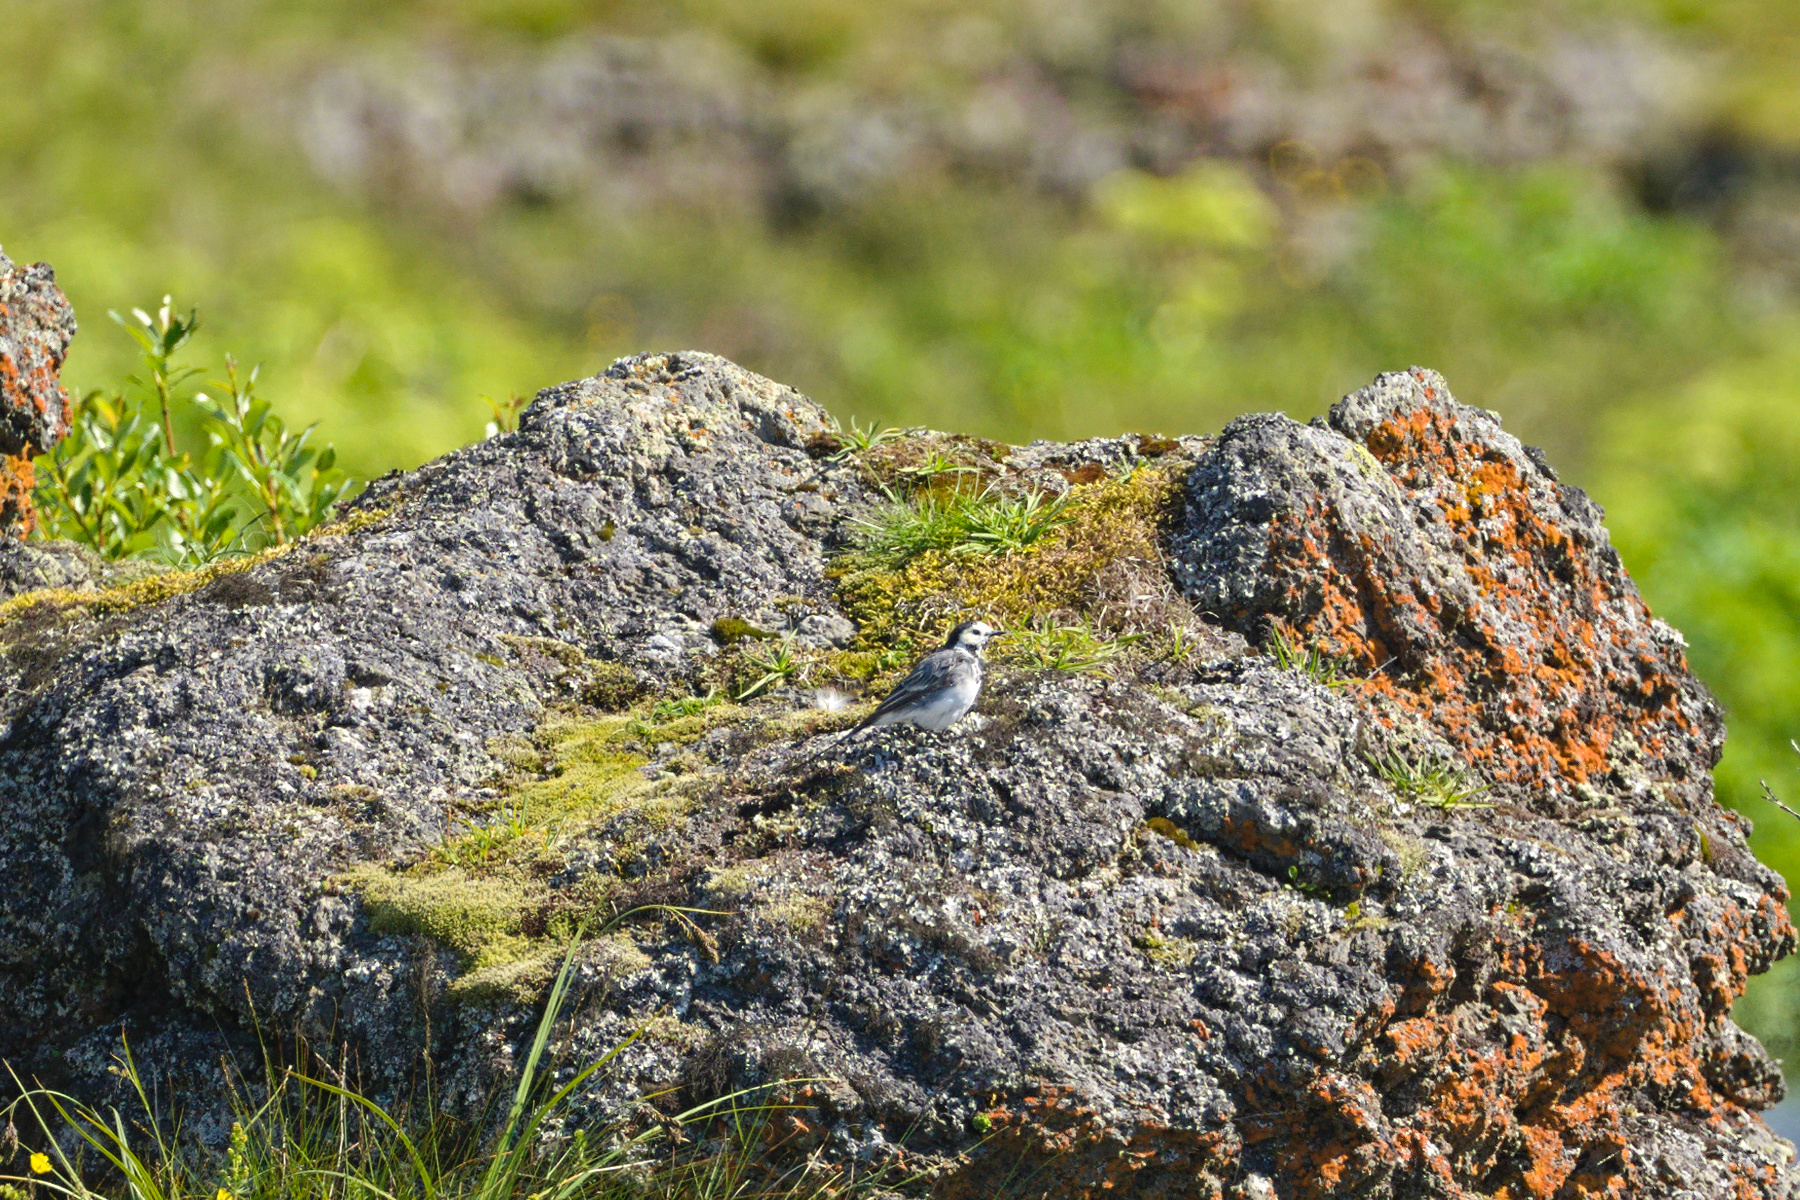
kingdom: Animalia
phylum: Chordata
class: Aves
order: Passeriformes
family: Motacillidae
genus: Motacilla
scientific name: Motacilla alba
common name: White wagtail
